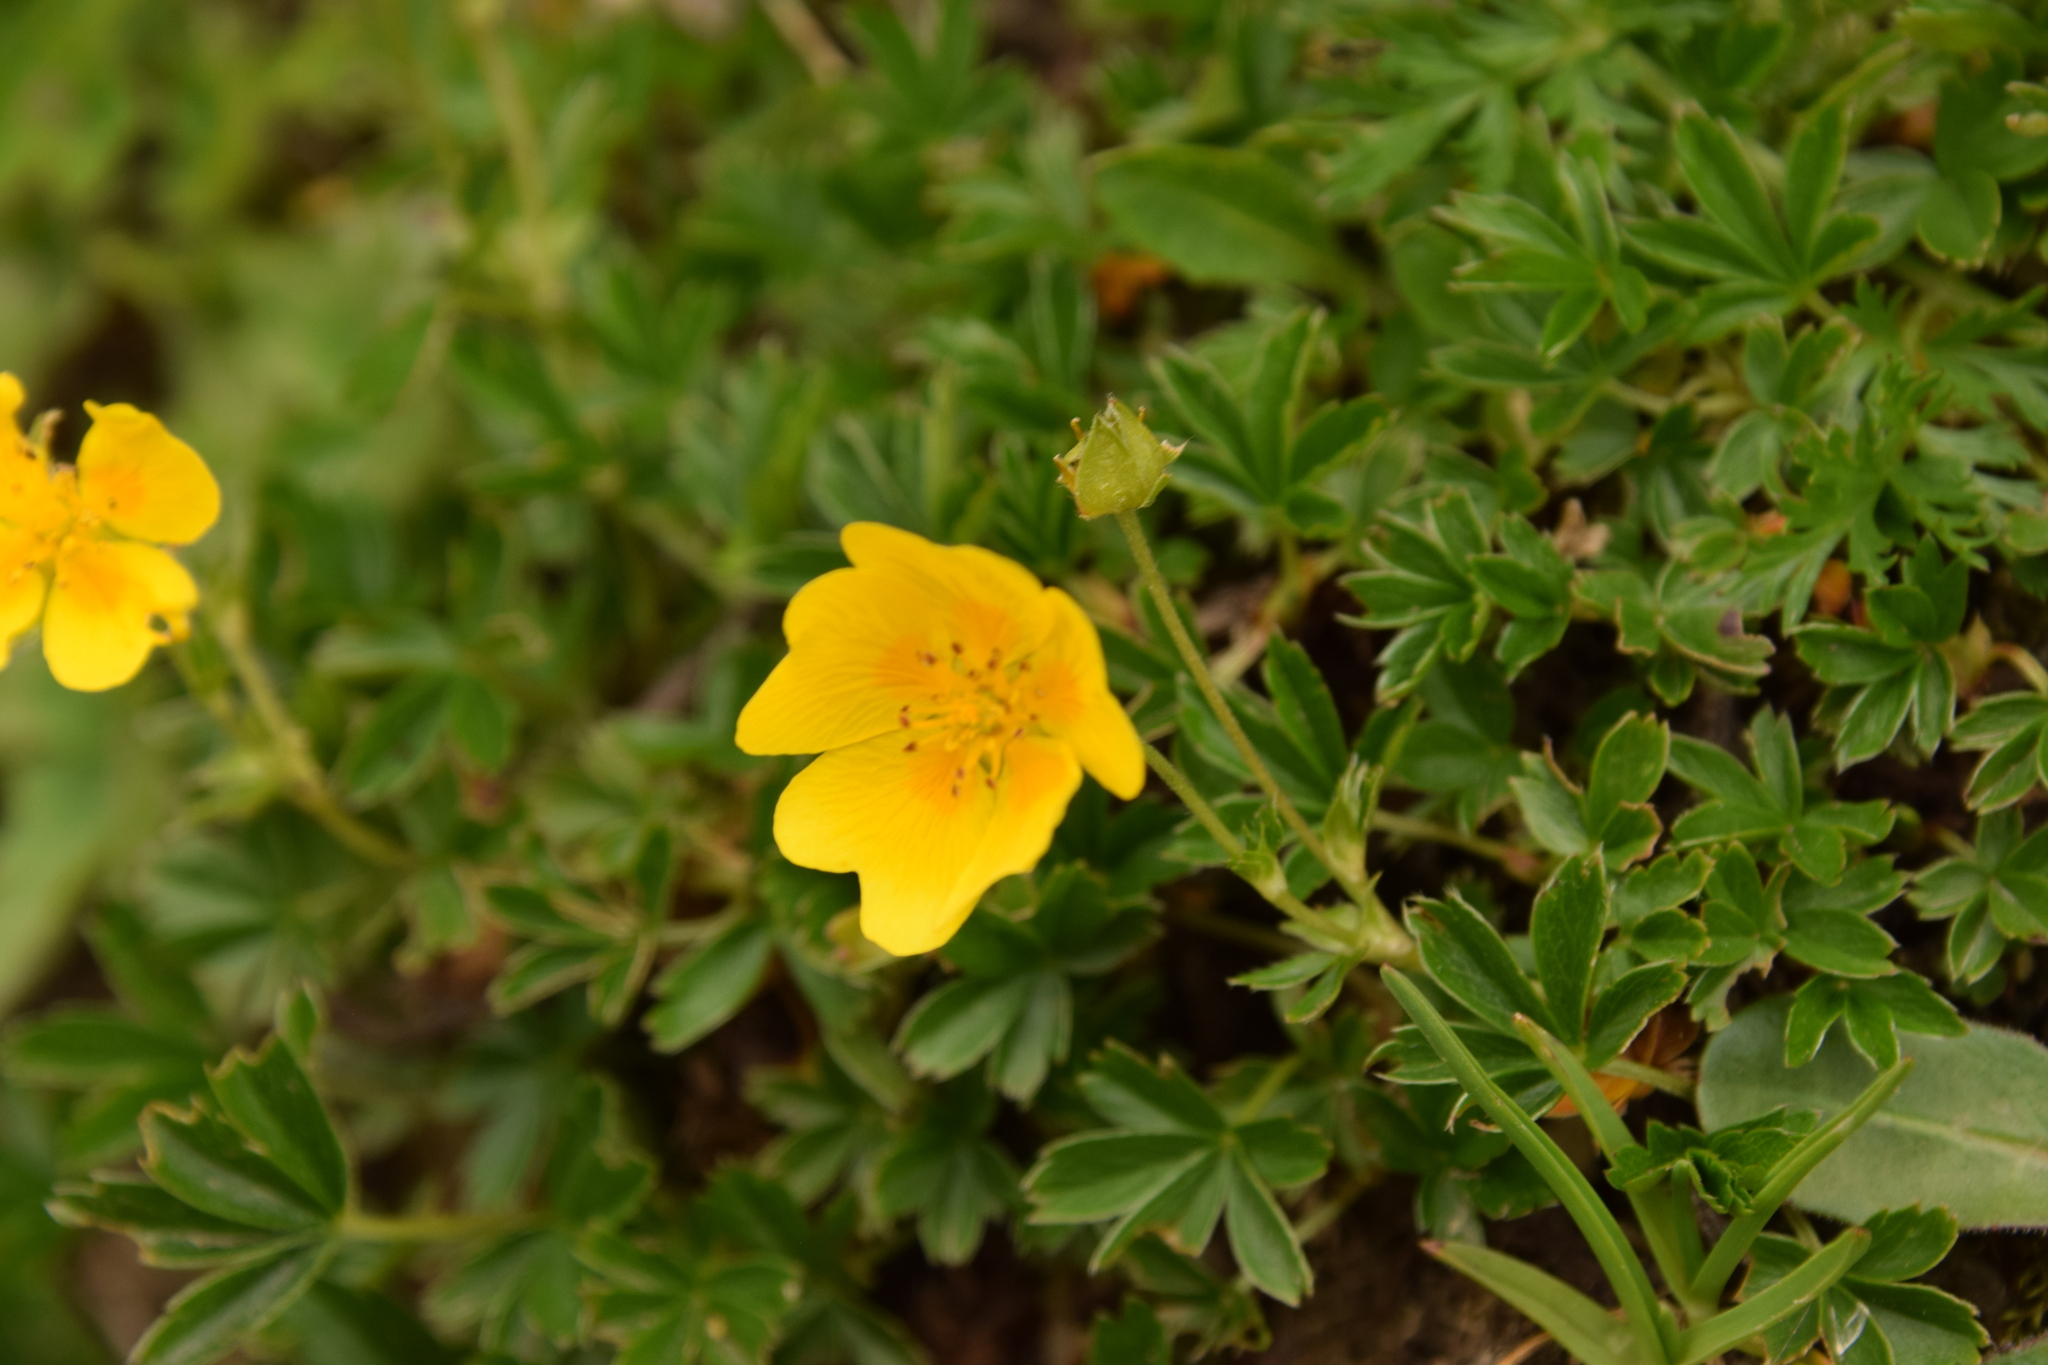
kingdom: Plantae
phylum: Tracheophyta
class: Magnoliopsida
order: Rosales
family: Rosaceae
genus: Potentilla
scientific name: Potentilla aurea
